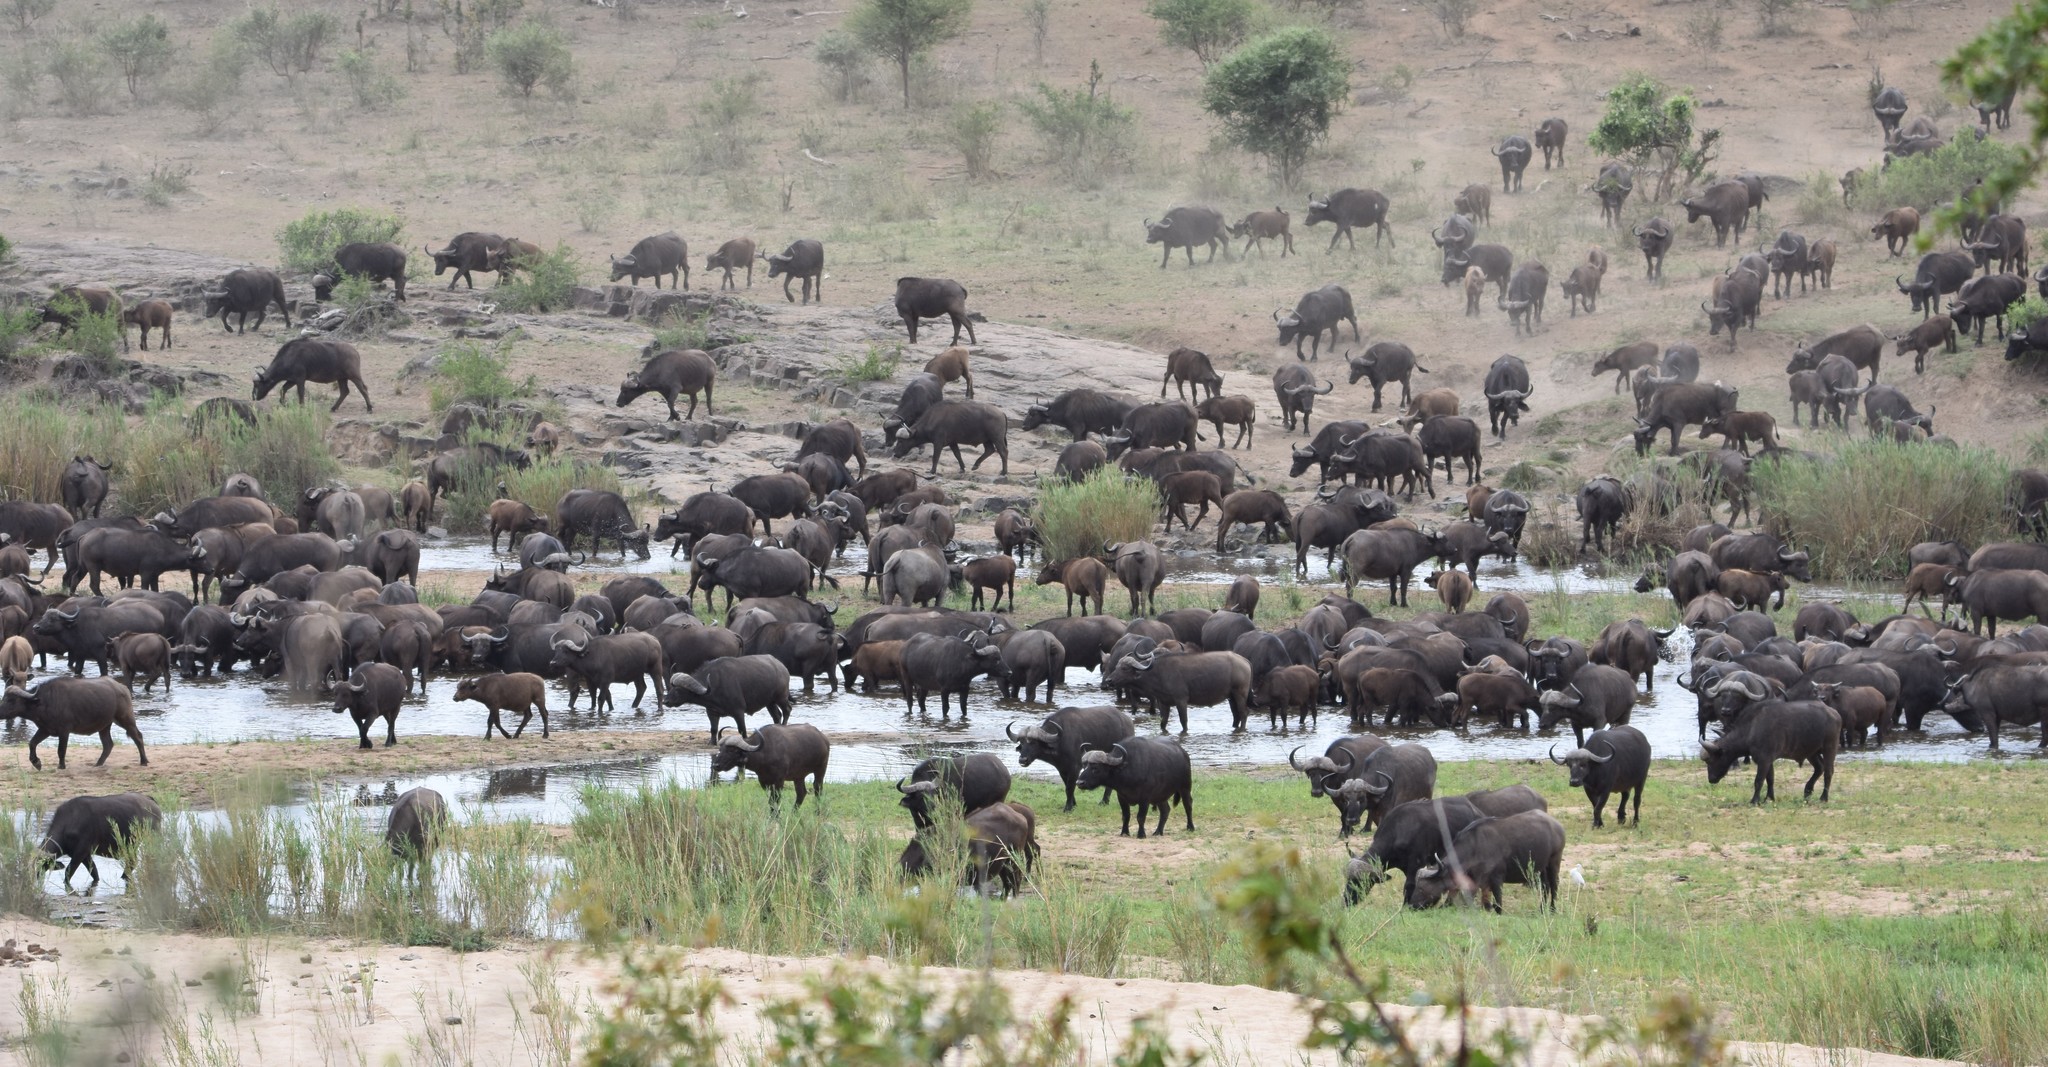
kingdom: Animalia
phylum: Chordata
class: Mammalia
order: Artiodactyla
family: Bovidae
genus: Syncerus
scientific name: Syncerus caffer
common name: African buffalo
